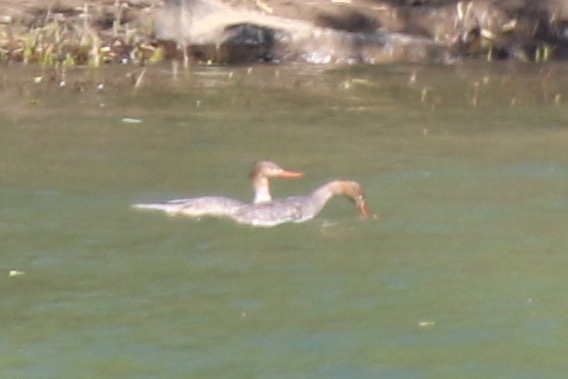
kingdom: Animalia
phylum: Chordata
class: Aves
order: Anseriformes
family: Anatidae
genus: Mergus
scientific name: Mergus serrator
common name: Red-breasted merganser
